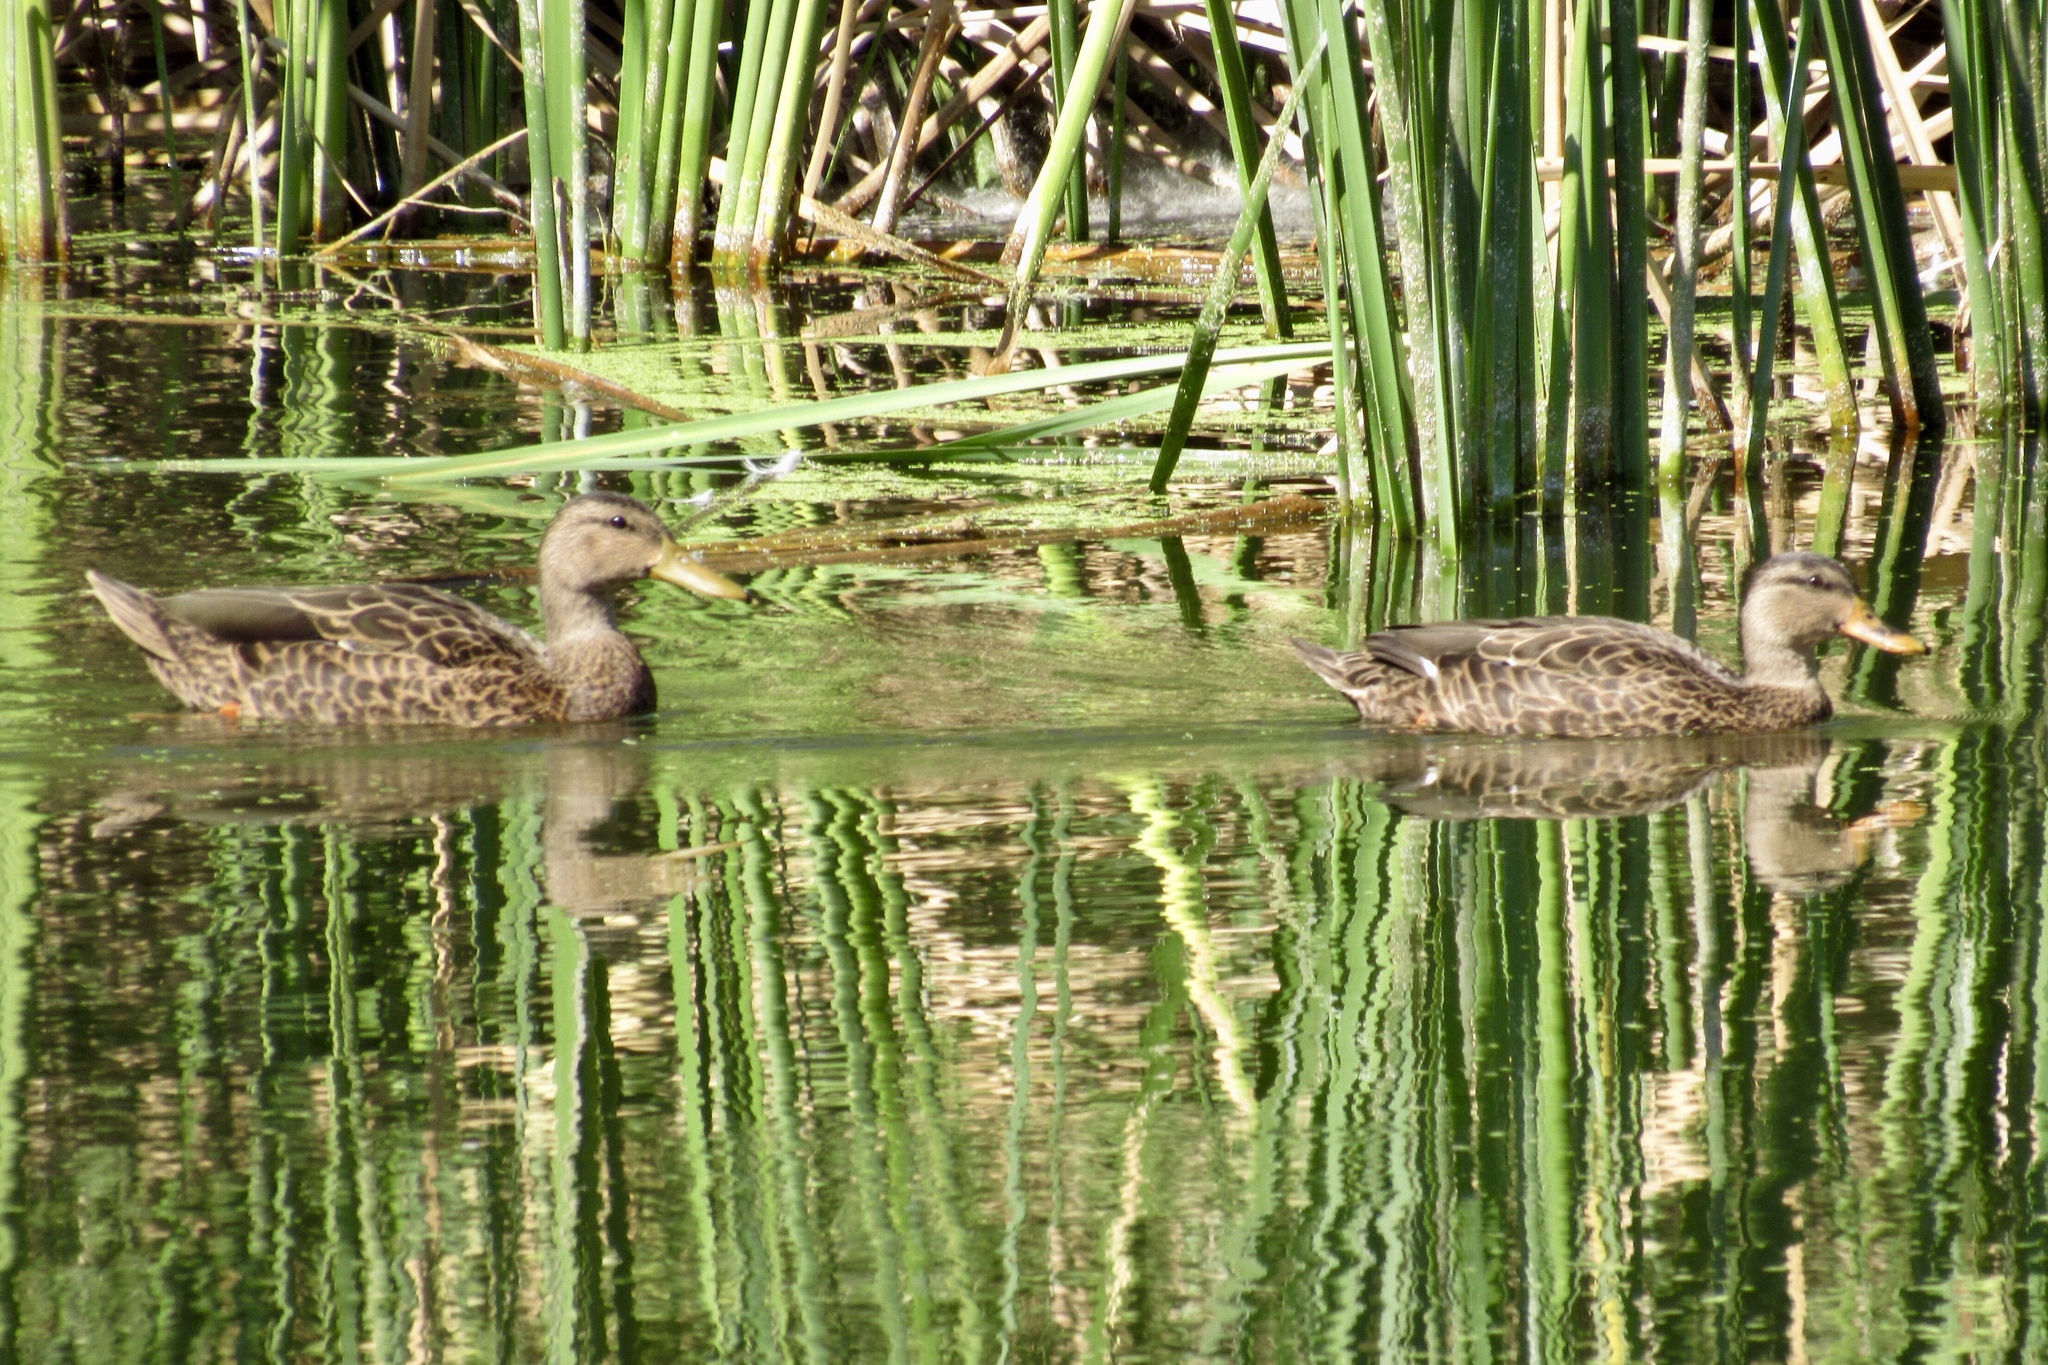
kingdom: Animalia
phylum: Chordata
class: Aves
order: Anseriformes
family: Anatidae
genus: Anas
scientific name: Anas diazi
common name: Mexican duck
